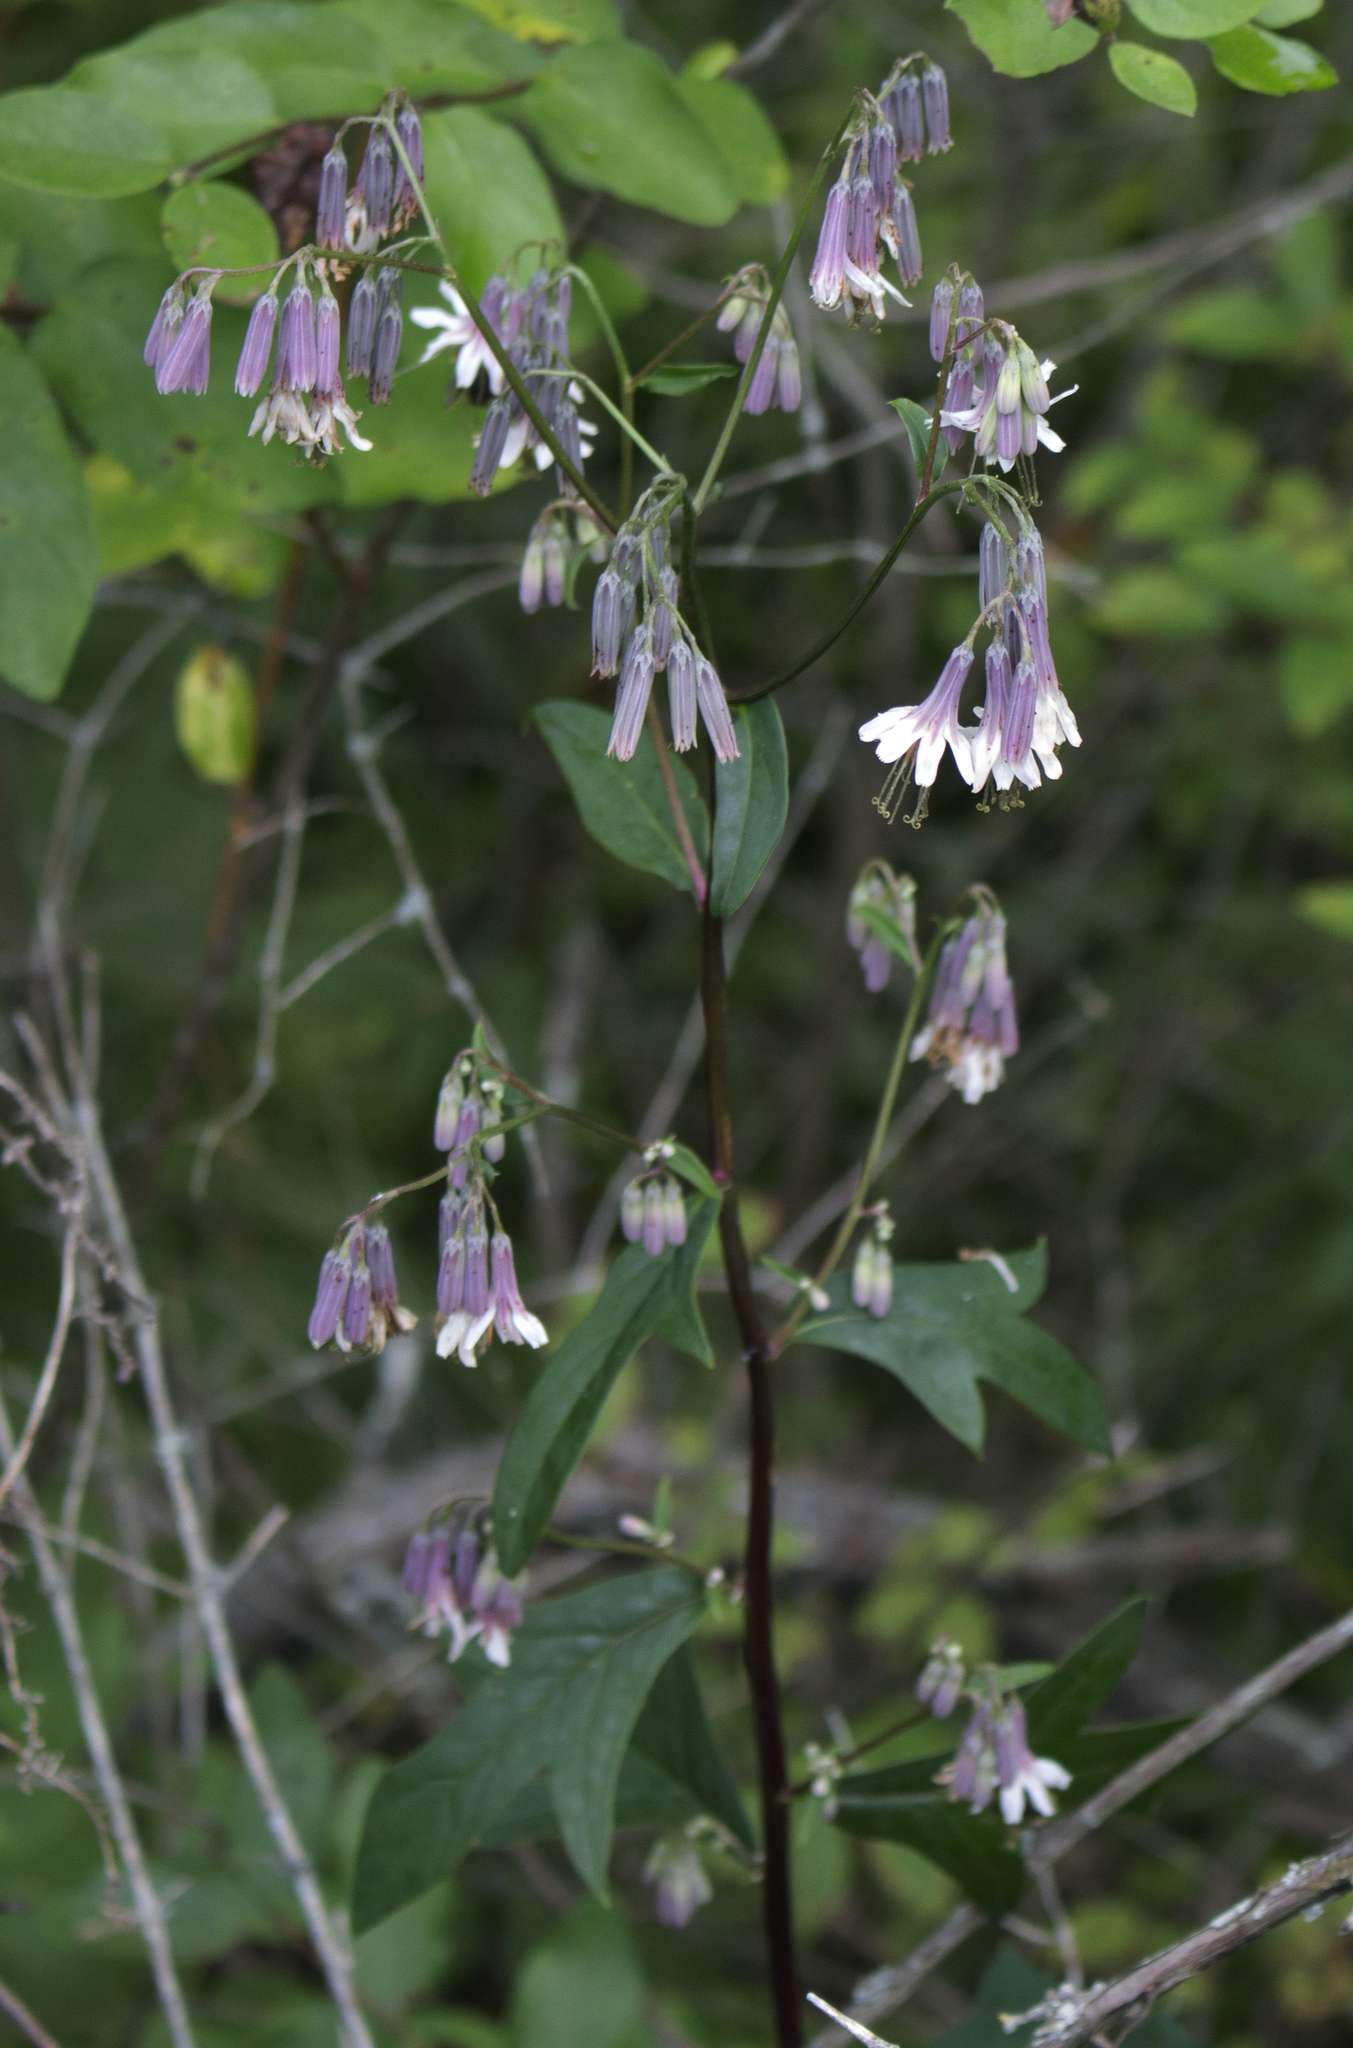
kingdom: Plantae
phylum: Tracheophyta
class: Magnoliopsida
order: Asterales
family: Asteraceae
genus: Nabalus
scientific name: Nabalus albus
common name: White rattlesnakeroot
